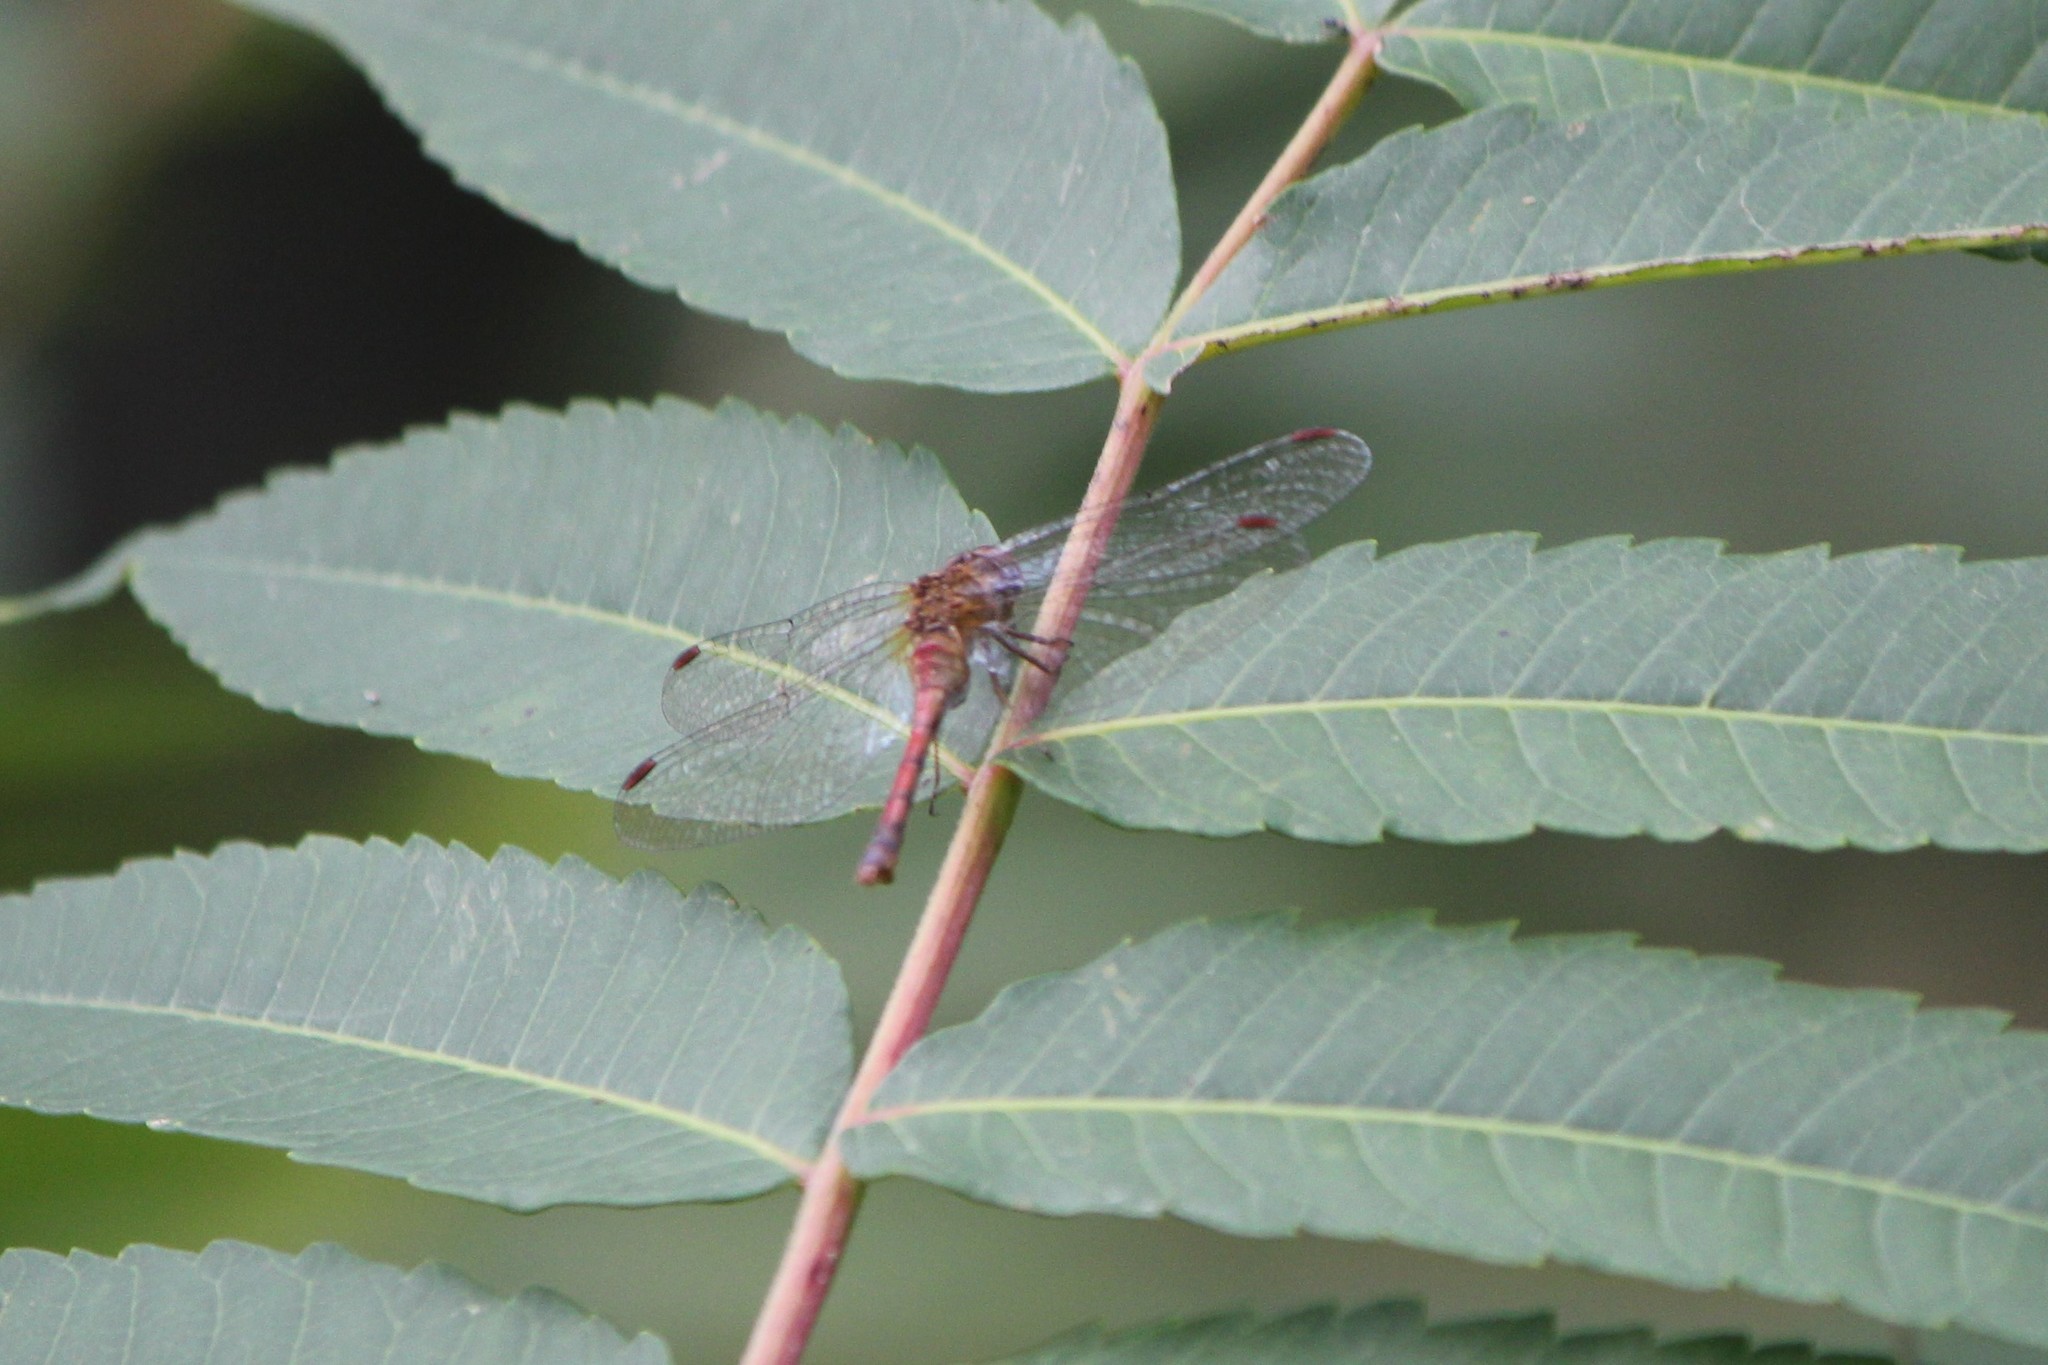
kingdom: Animalia
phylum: Arthropoda
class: Insecta
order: Odonata
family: Libellulidae
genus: Sympetrum
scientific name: Sympetrum vicinum
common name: Autumn meadowhawk
